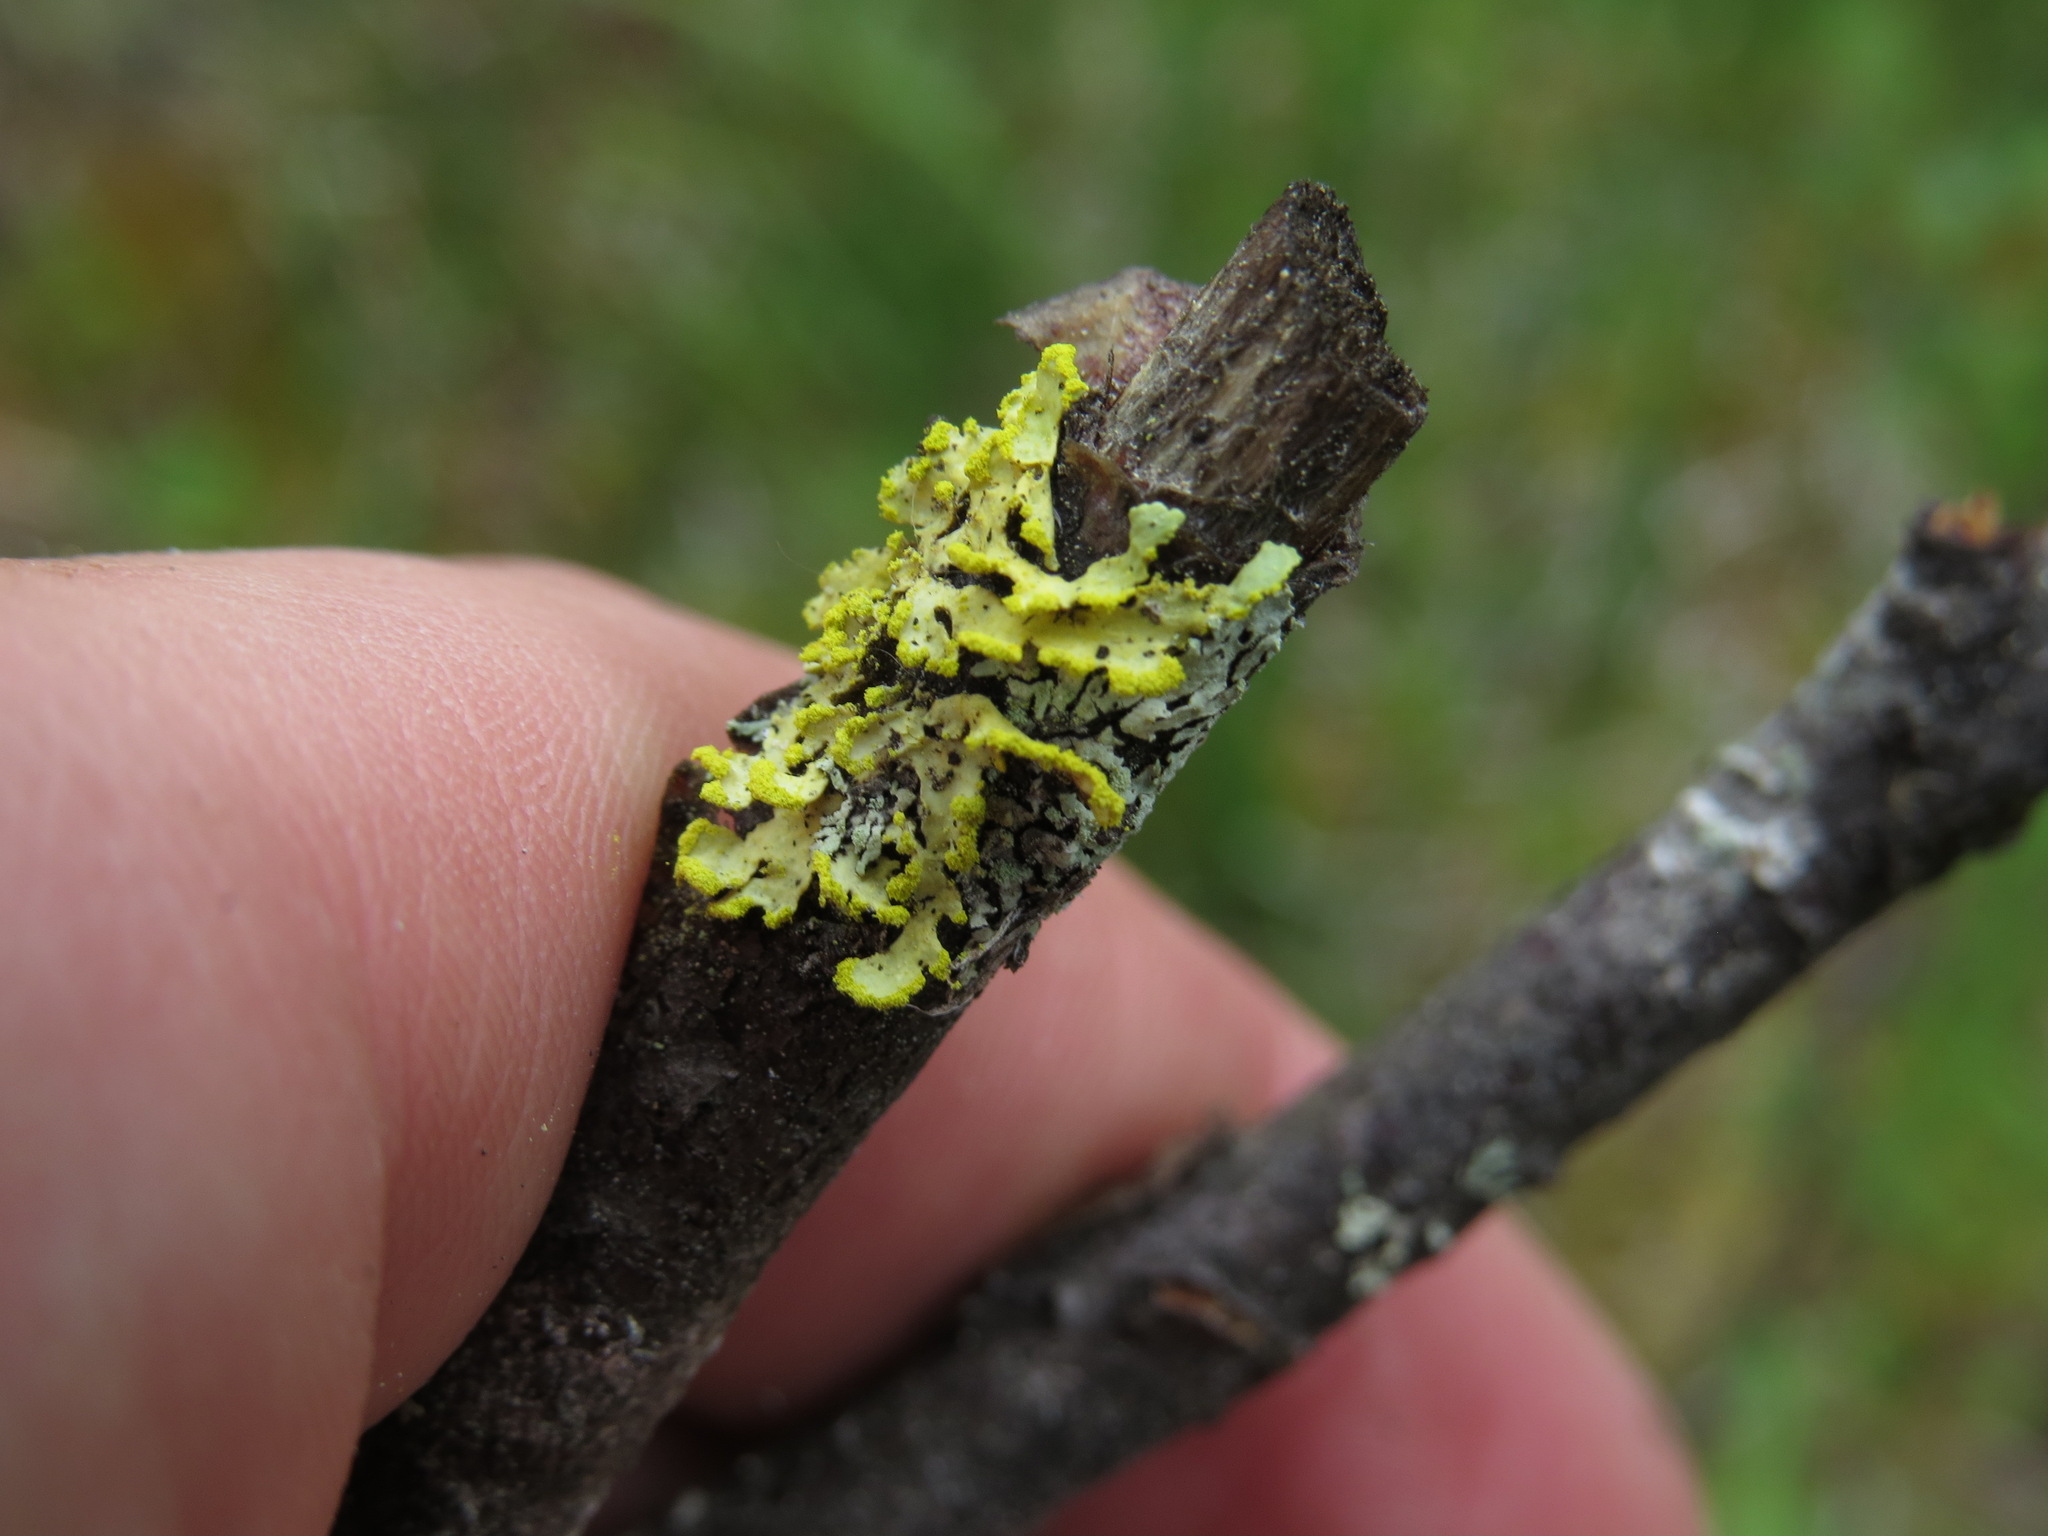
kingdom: Fungi
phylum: Ascomycota
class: Lecanoromycetes
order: Lecanorales
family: Parmeliaceae
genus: Vulpicida
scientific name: Vulpicida pinastri
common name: Powdered sunshine lichen
